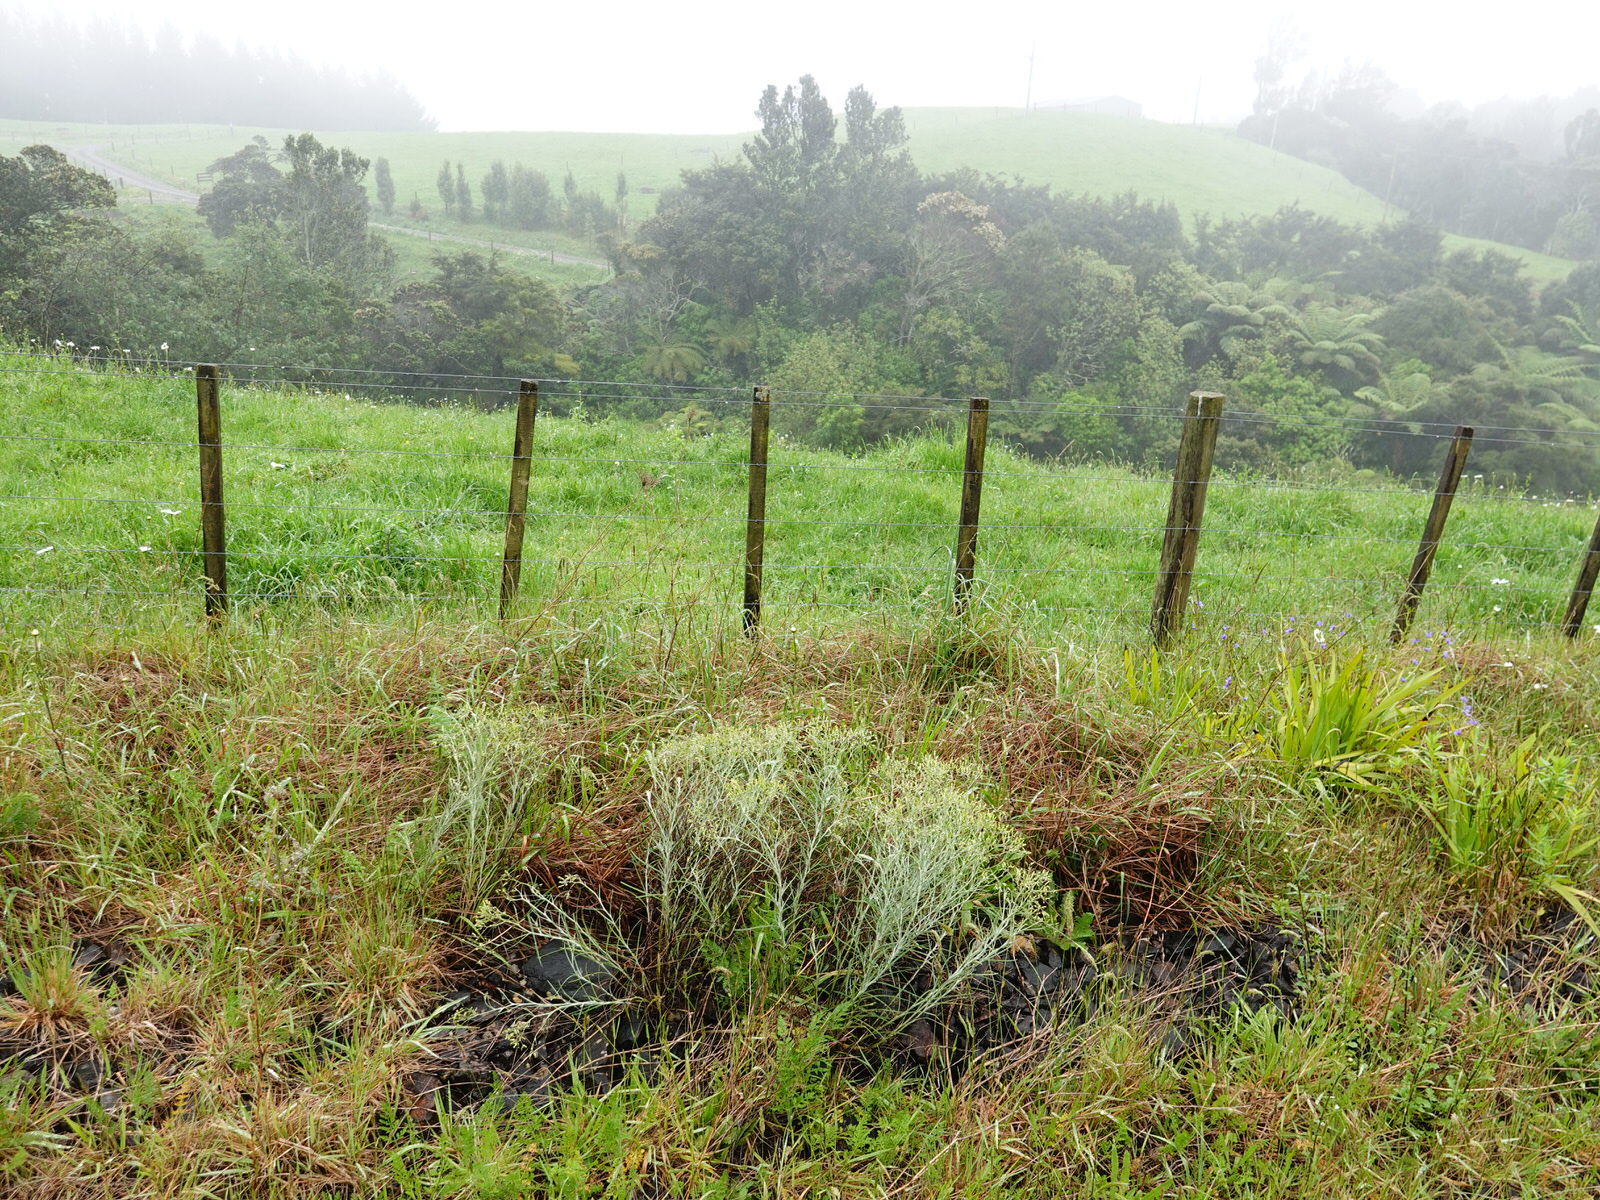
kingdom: Plantae
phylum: Tracheophyta
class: Magnoliopsida
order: Asterales
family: Asteraceae
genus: Senecio
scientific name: Senecio quadridentatus
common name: Cotton fireweed
